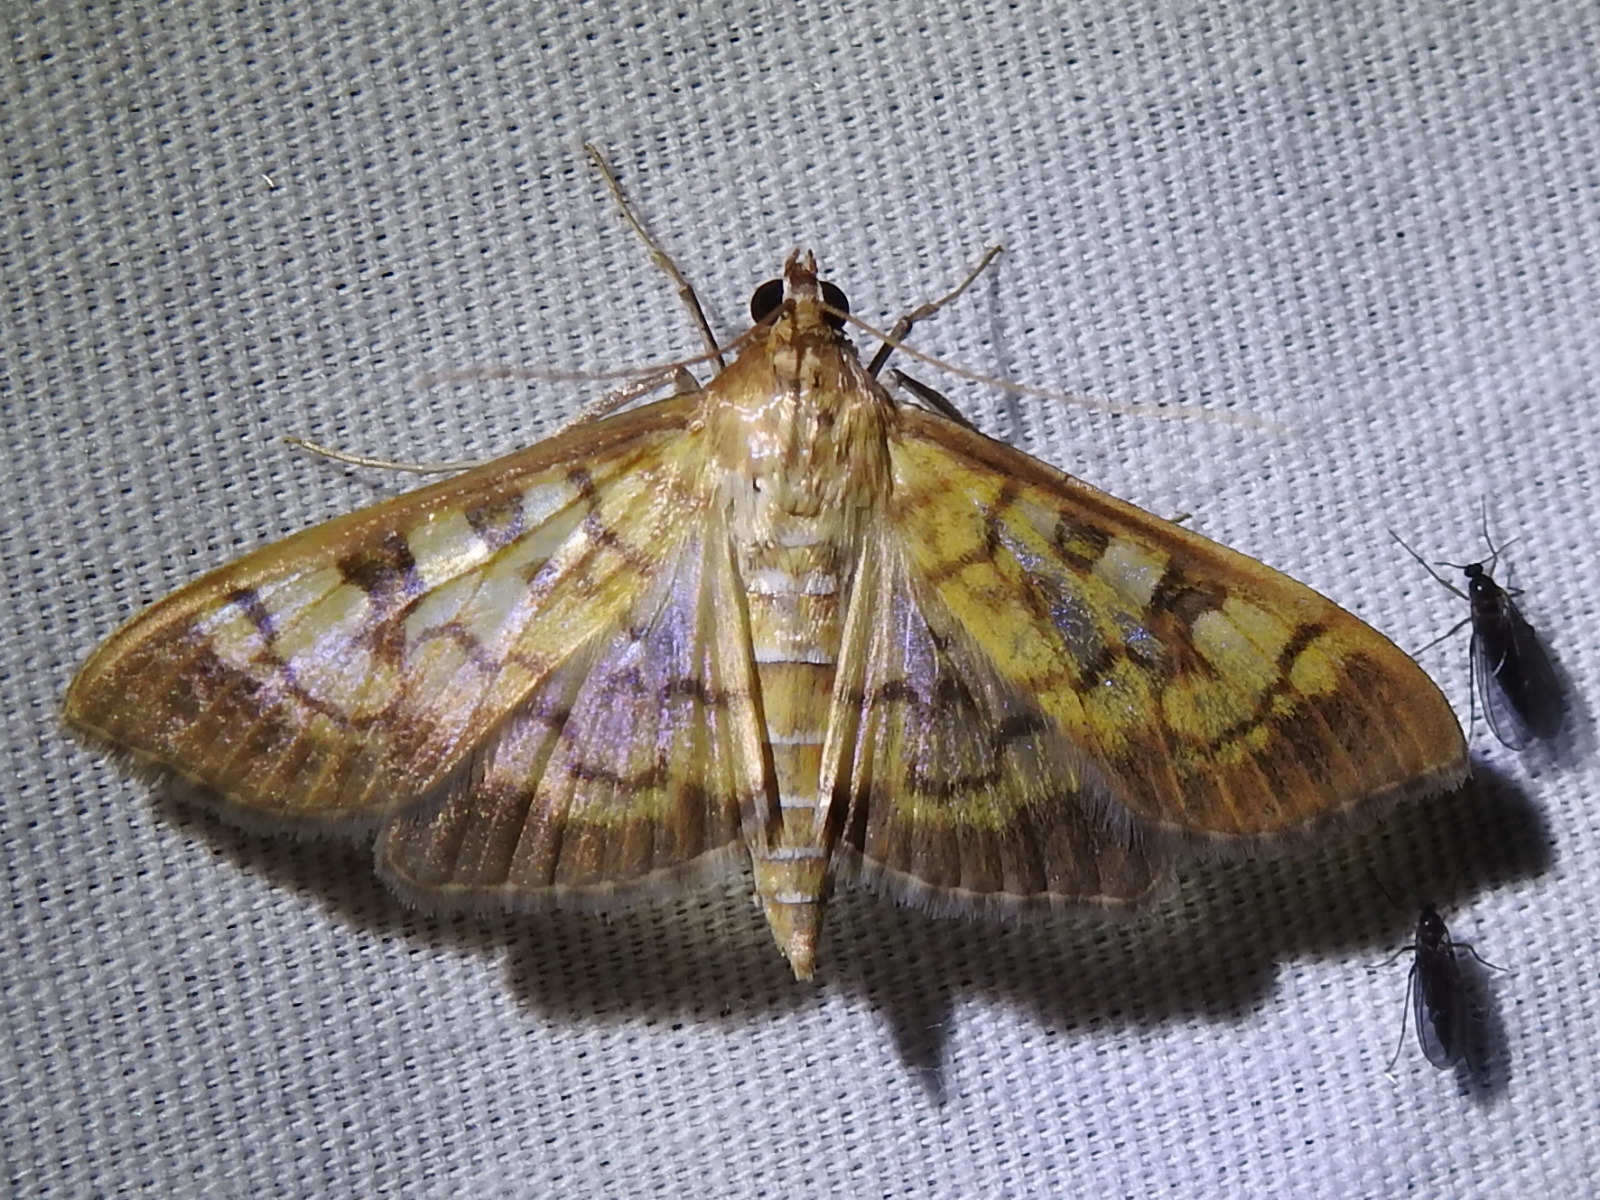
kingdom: Animalia
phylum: Arthropoda
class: Insecta
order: Lepidoptera
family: Crambidae
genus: Mimorista
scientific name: Mimorista subcostalis
